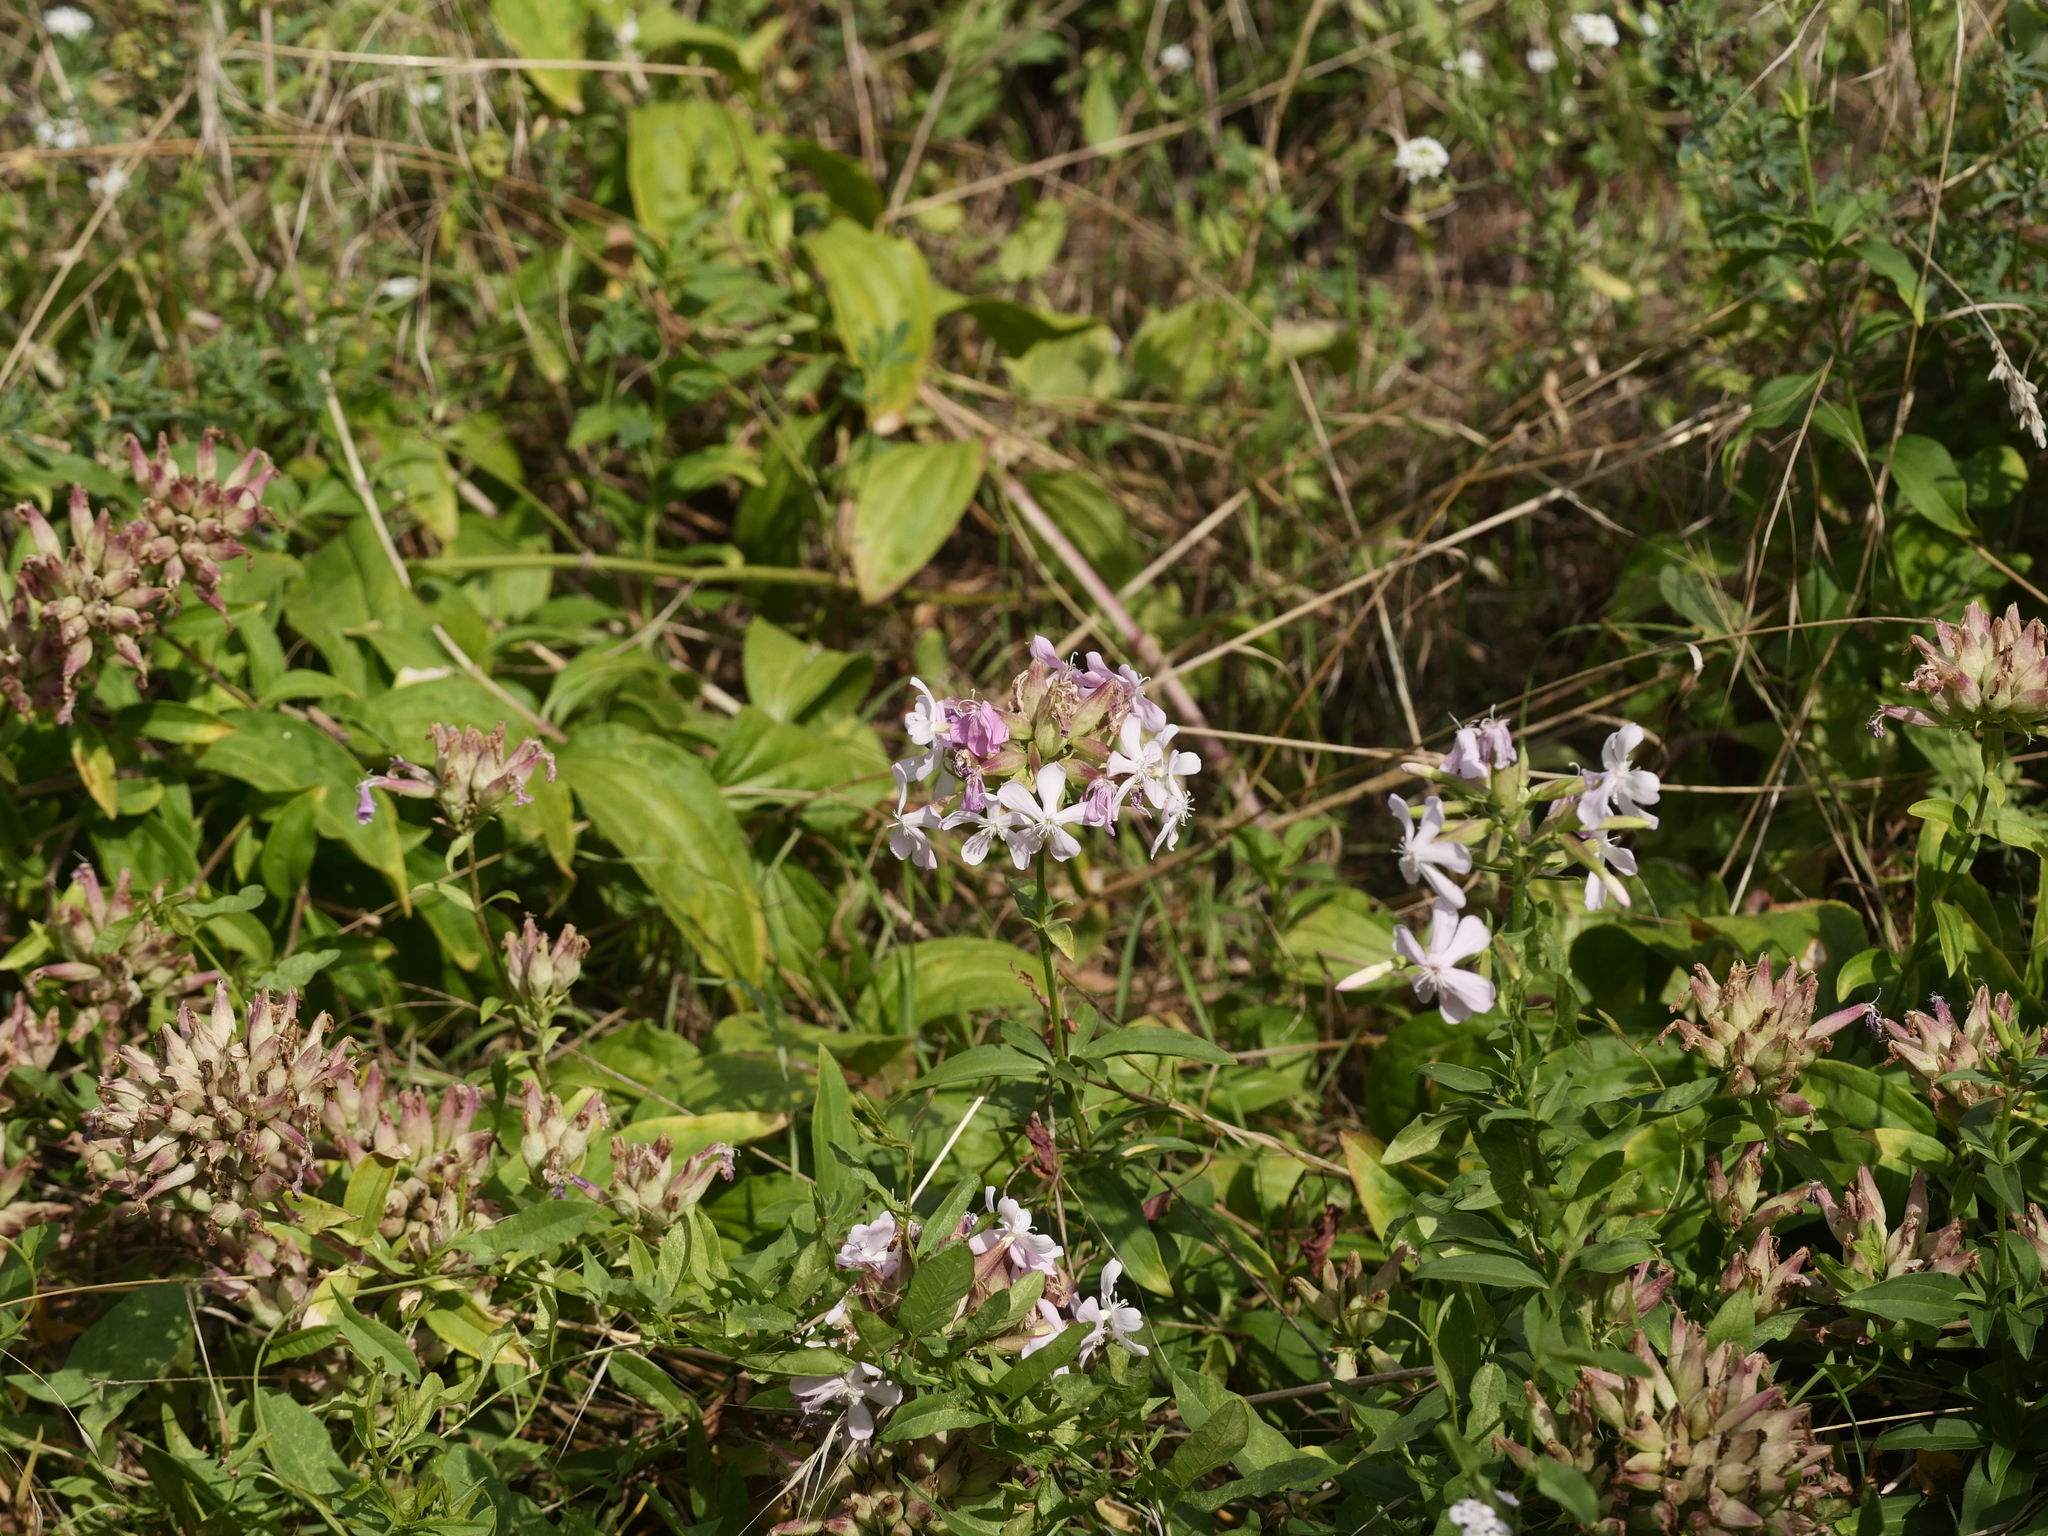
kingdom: Plantae
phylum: Tracheophyta
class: Magnoliopsida
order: Caryophyllales
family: Caryophyllaceae
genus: Saponaria
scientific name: Saponaria officinalis
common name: Soapwort
